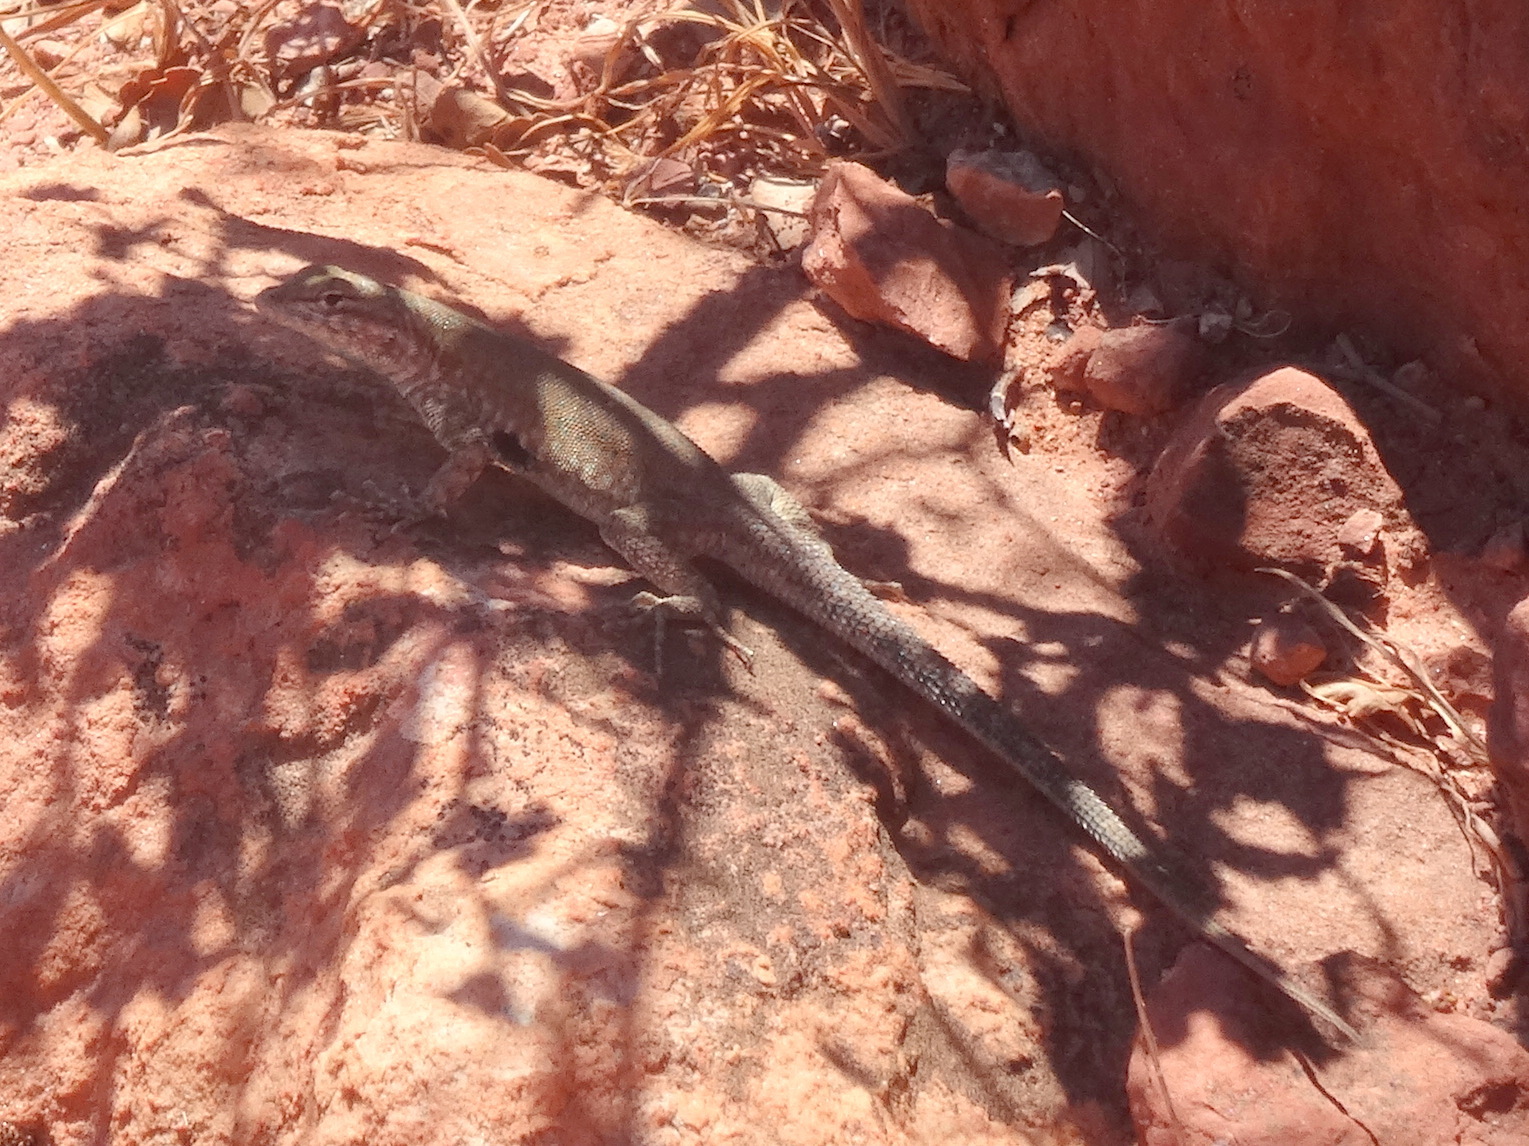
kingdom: Animalia
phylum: Chordata
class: Squamata
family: Phrynosomatidae
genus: Uta
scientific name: Uta stansburiana
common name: Side-blotched lizard
